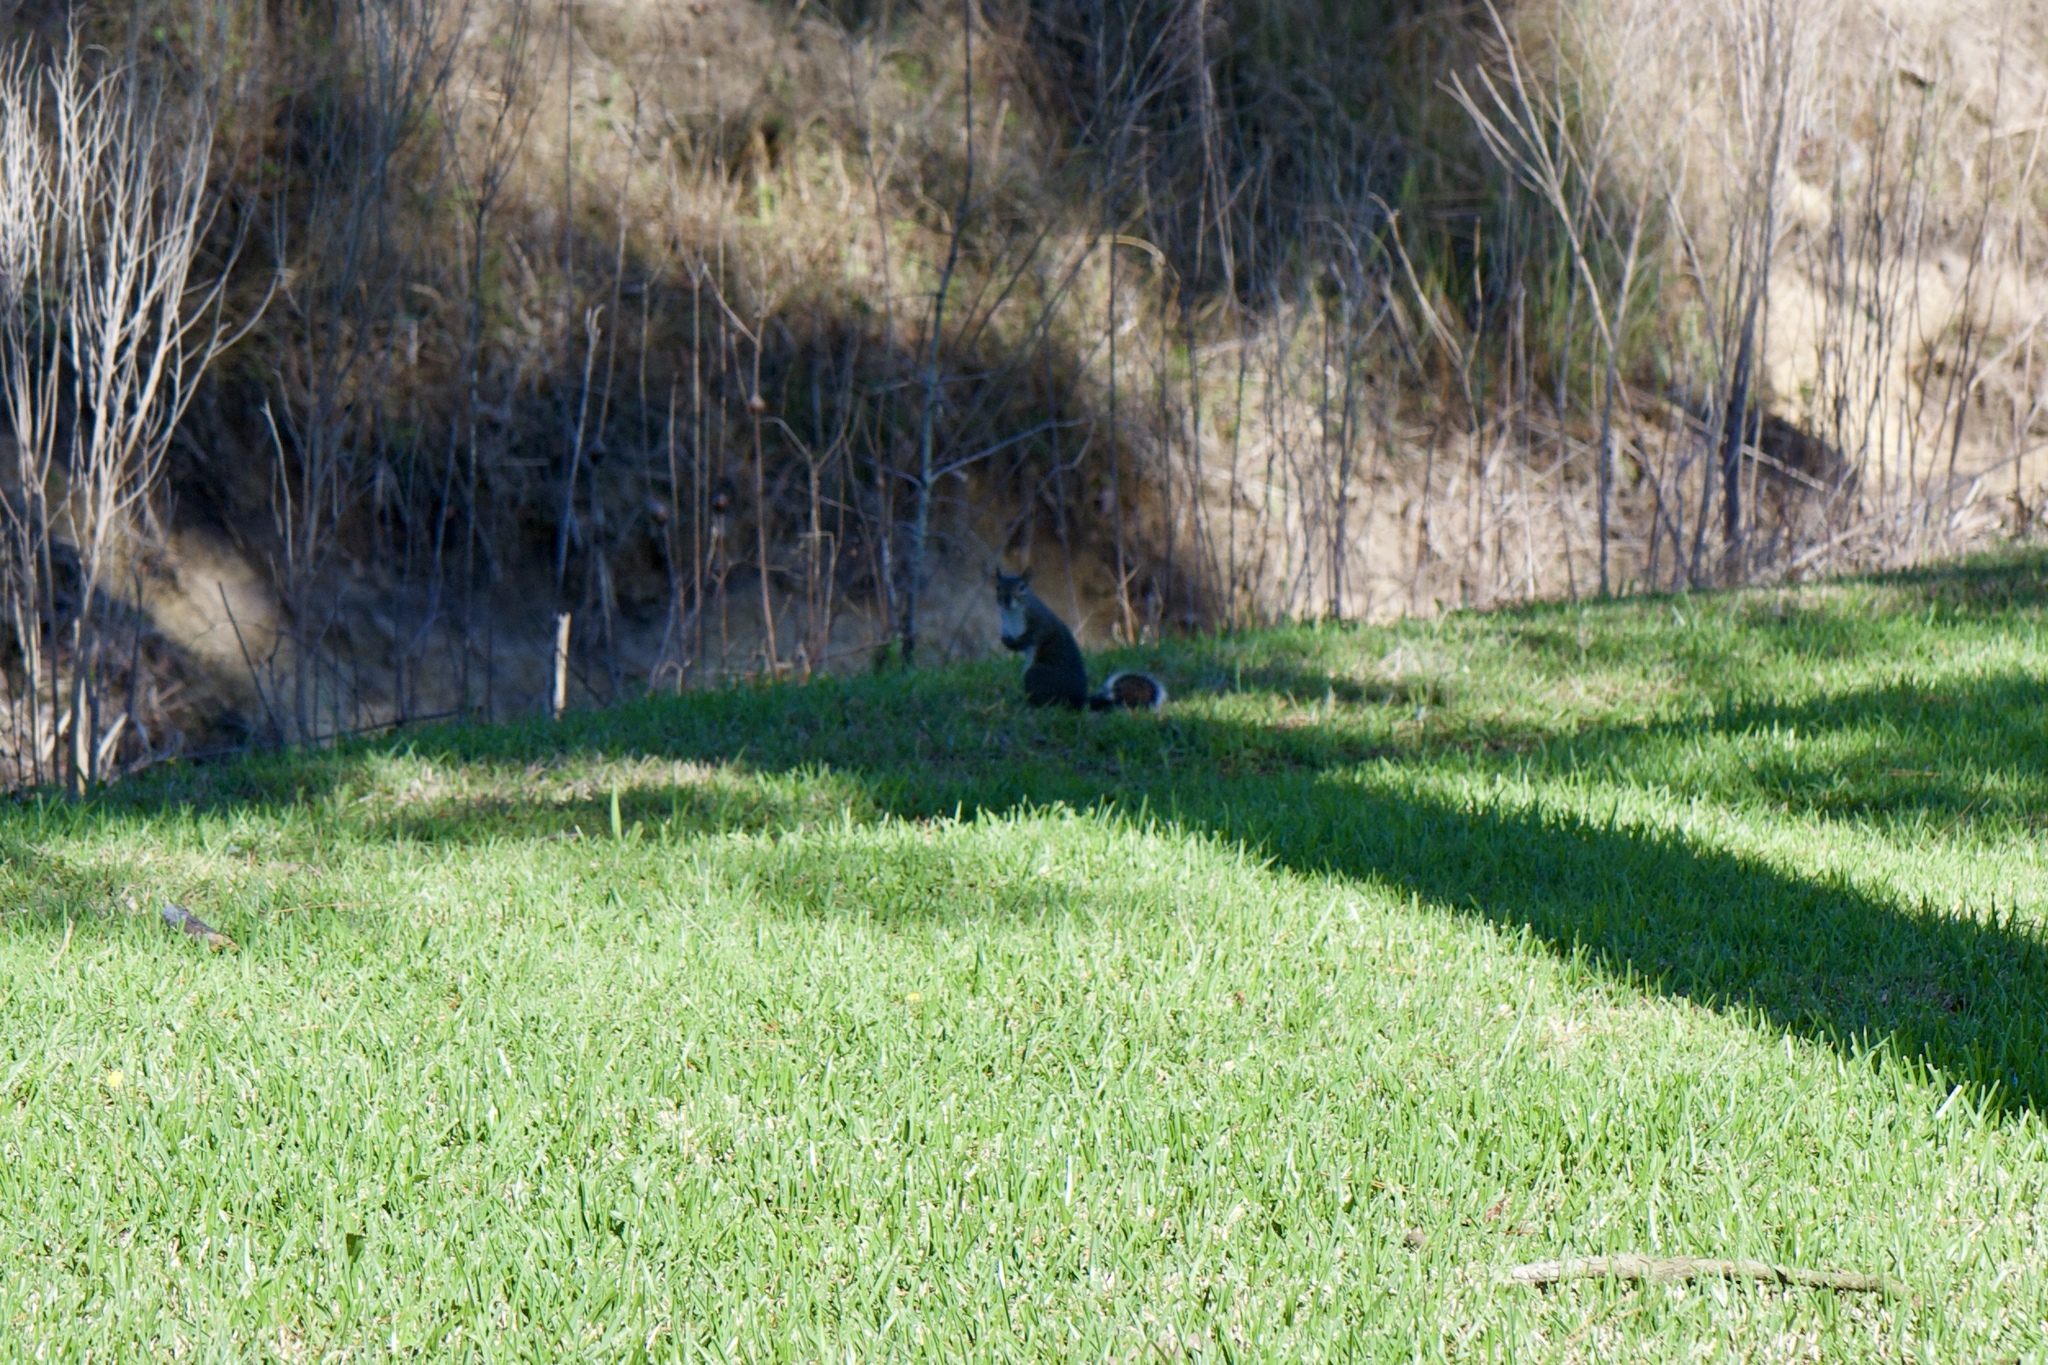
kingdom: Animalia
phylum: Chordata
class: Mammalia
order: Rodentia
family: Sciuridae
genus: Sciurus
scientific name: Sciurus carolinensis
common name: Eastern gray squirrel
